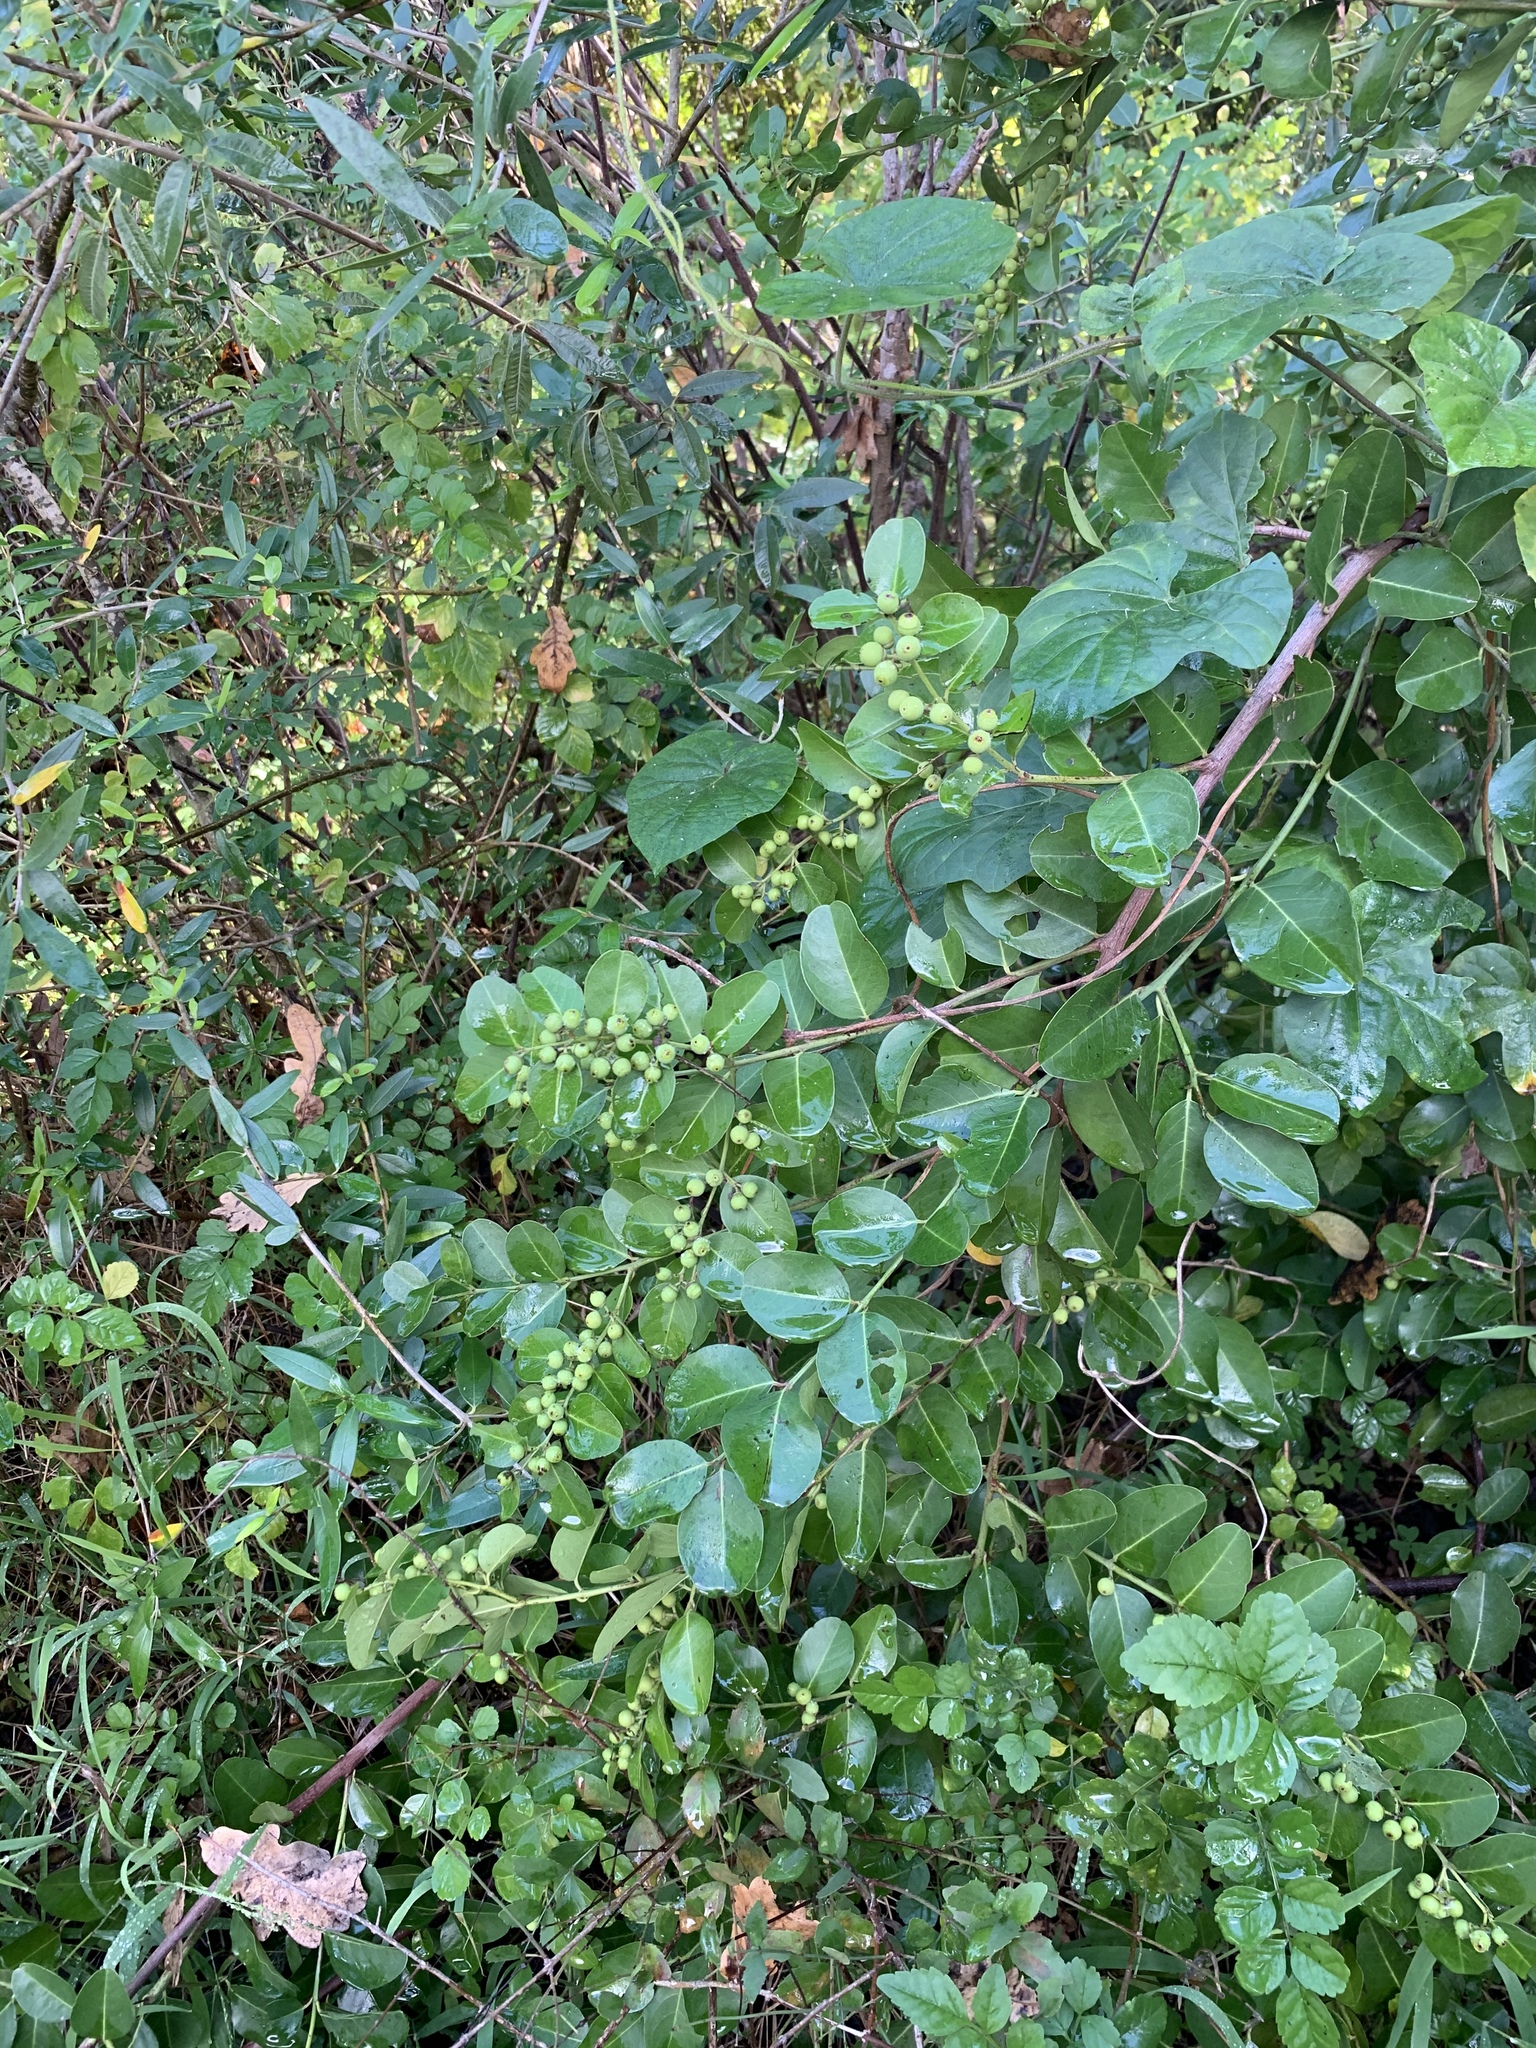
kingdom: Plantae
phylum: Tracheophyta
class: Magnoliopsida
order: Rosales
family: Rhamnaceae
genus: Scutia
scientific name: Scutia myrtina
